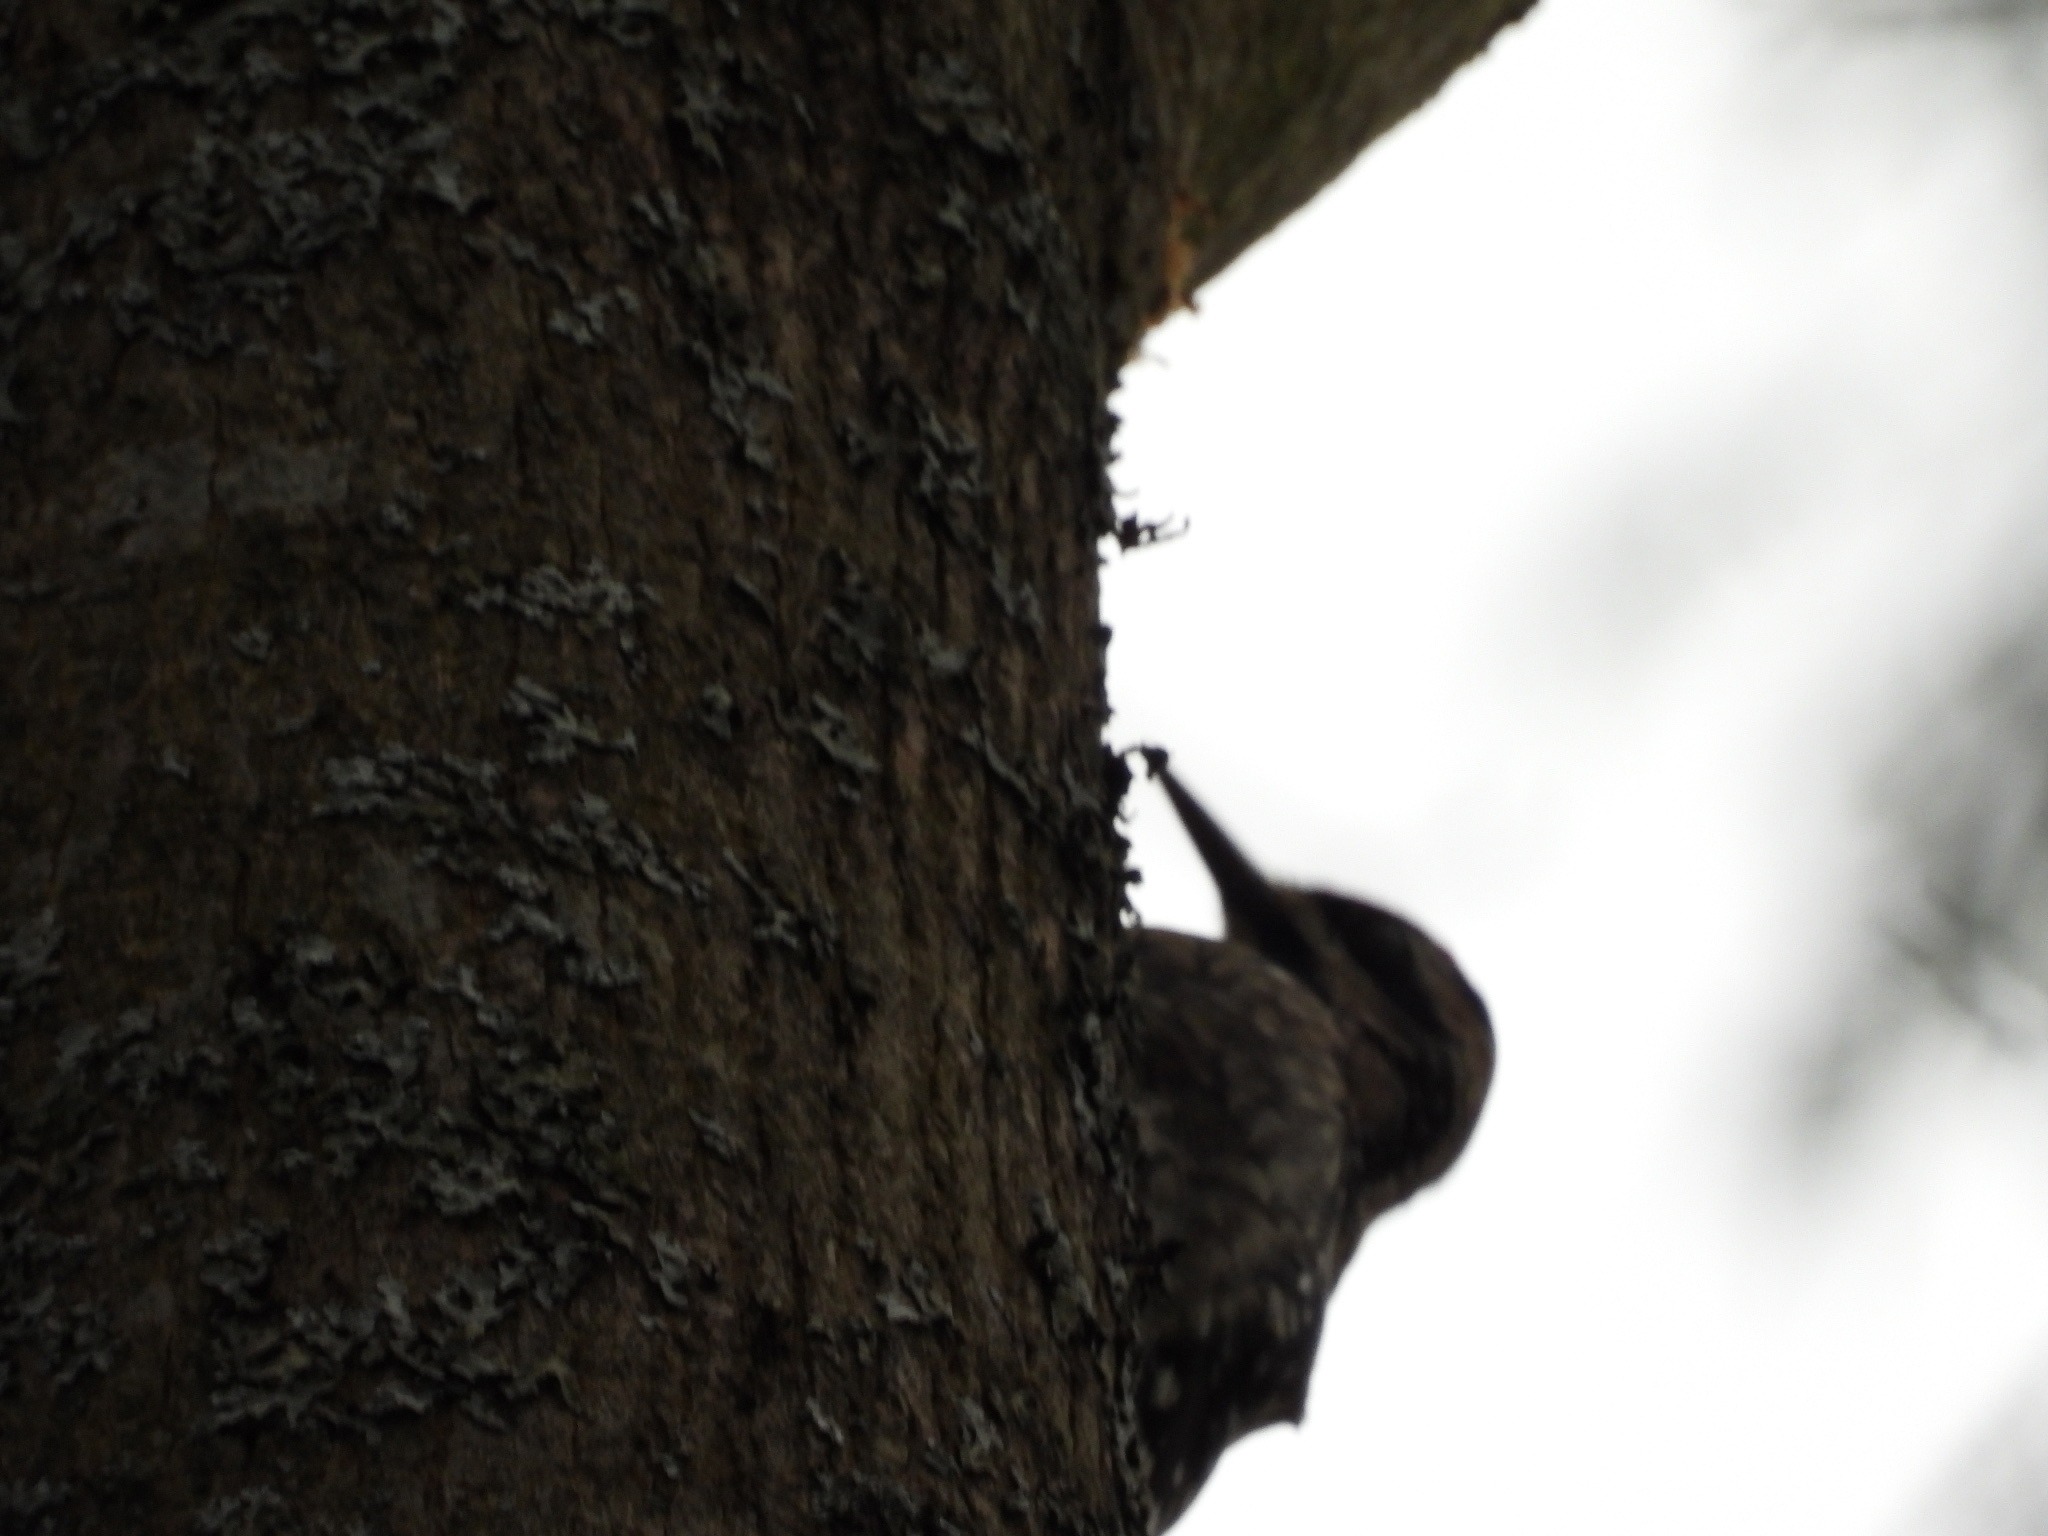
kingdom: Animalia
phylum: Chordata
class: Aves
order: Piciformes
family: Picidae
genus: Sphyrapicus
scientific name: Sphyrapicus varius
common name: Yellow-bellied sapsucker
